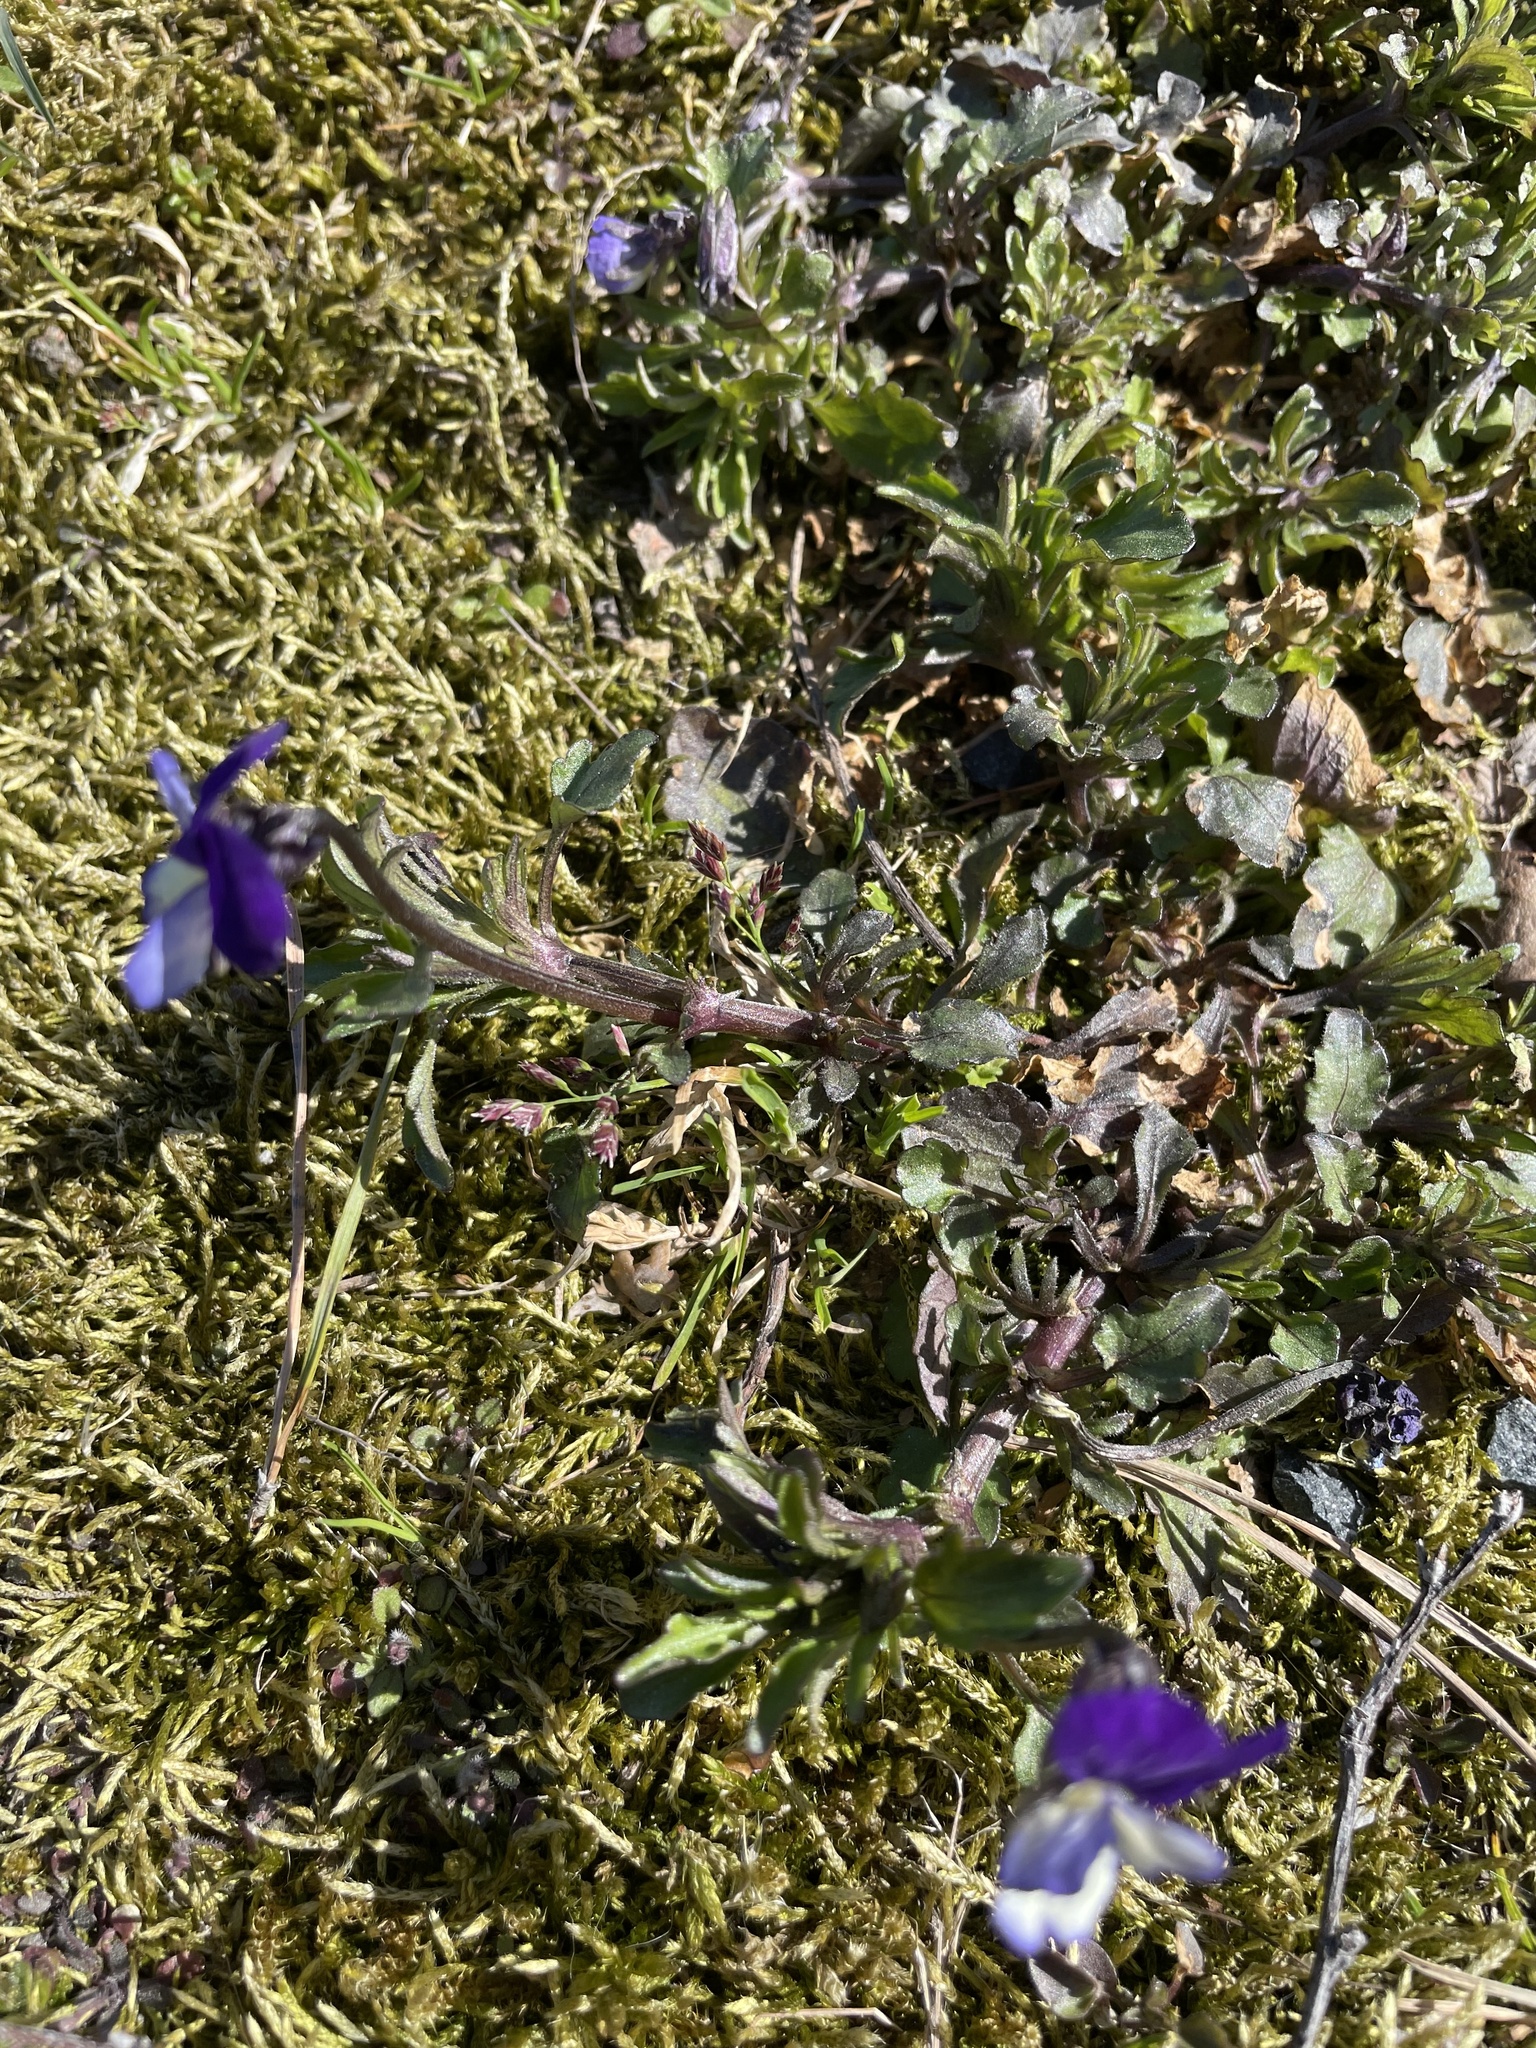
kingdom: Plantae
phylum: Tracheophyta
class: Magnoliopsida
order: Malpighiales
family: Violaceae
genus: Viola
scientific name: Viola tricolor
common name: Pansy
